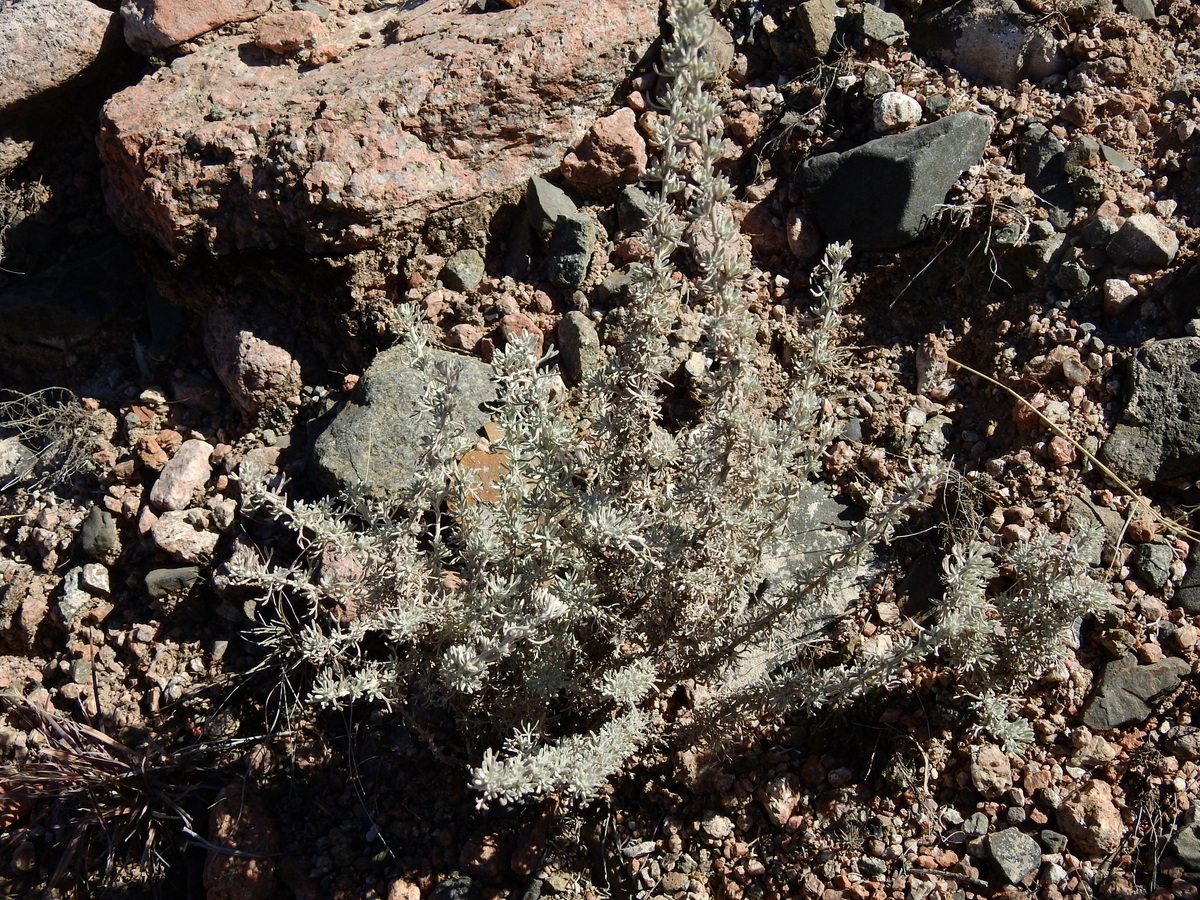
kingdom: Plantae
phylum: Tracheophyta
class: Magnoliopsida
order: Asterales
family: Asteraceae
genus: Artemisia
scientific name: Artemisia mendozana
